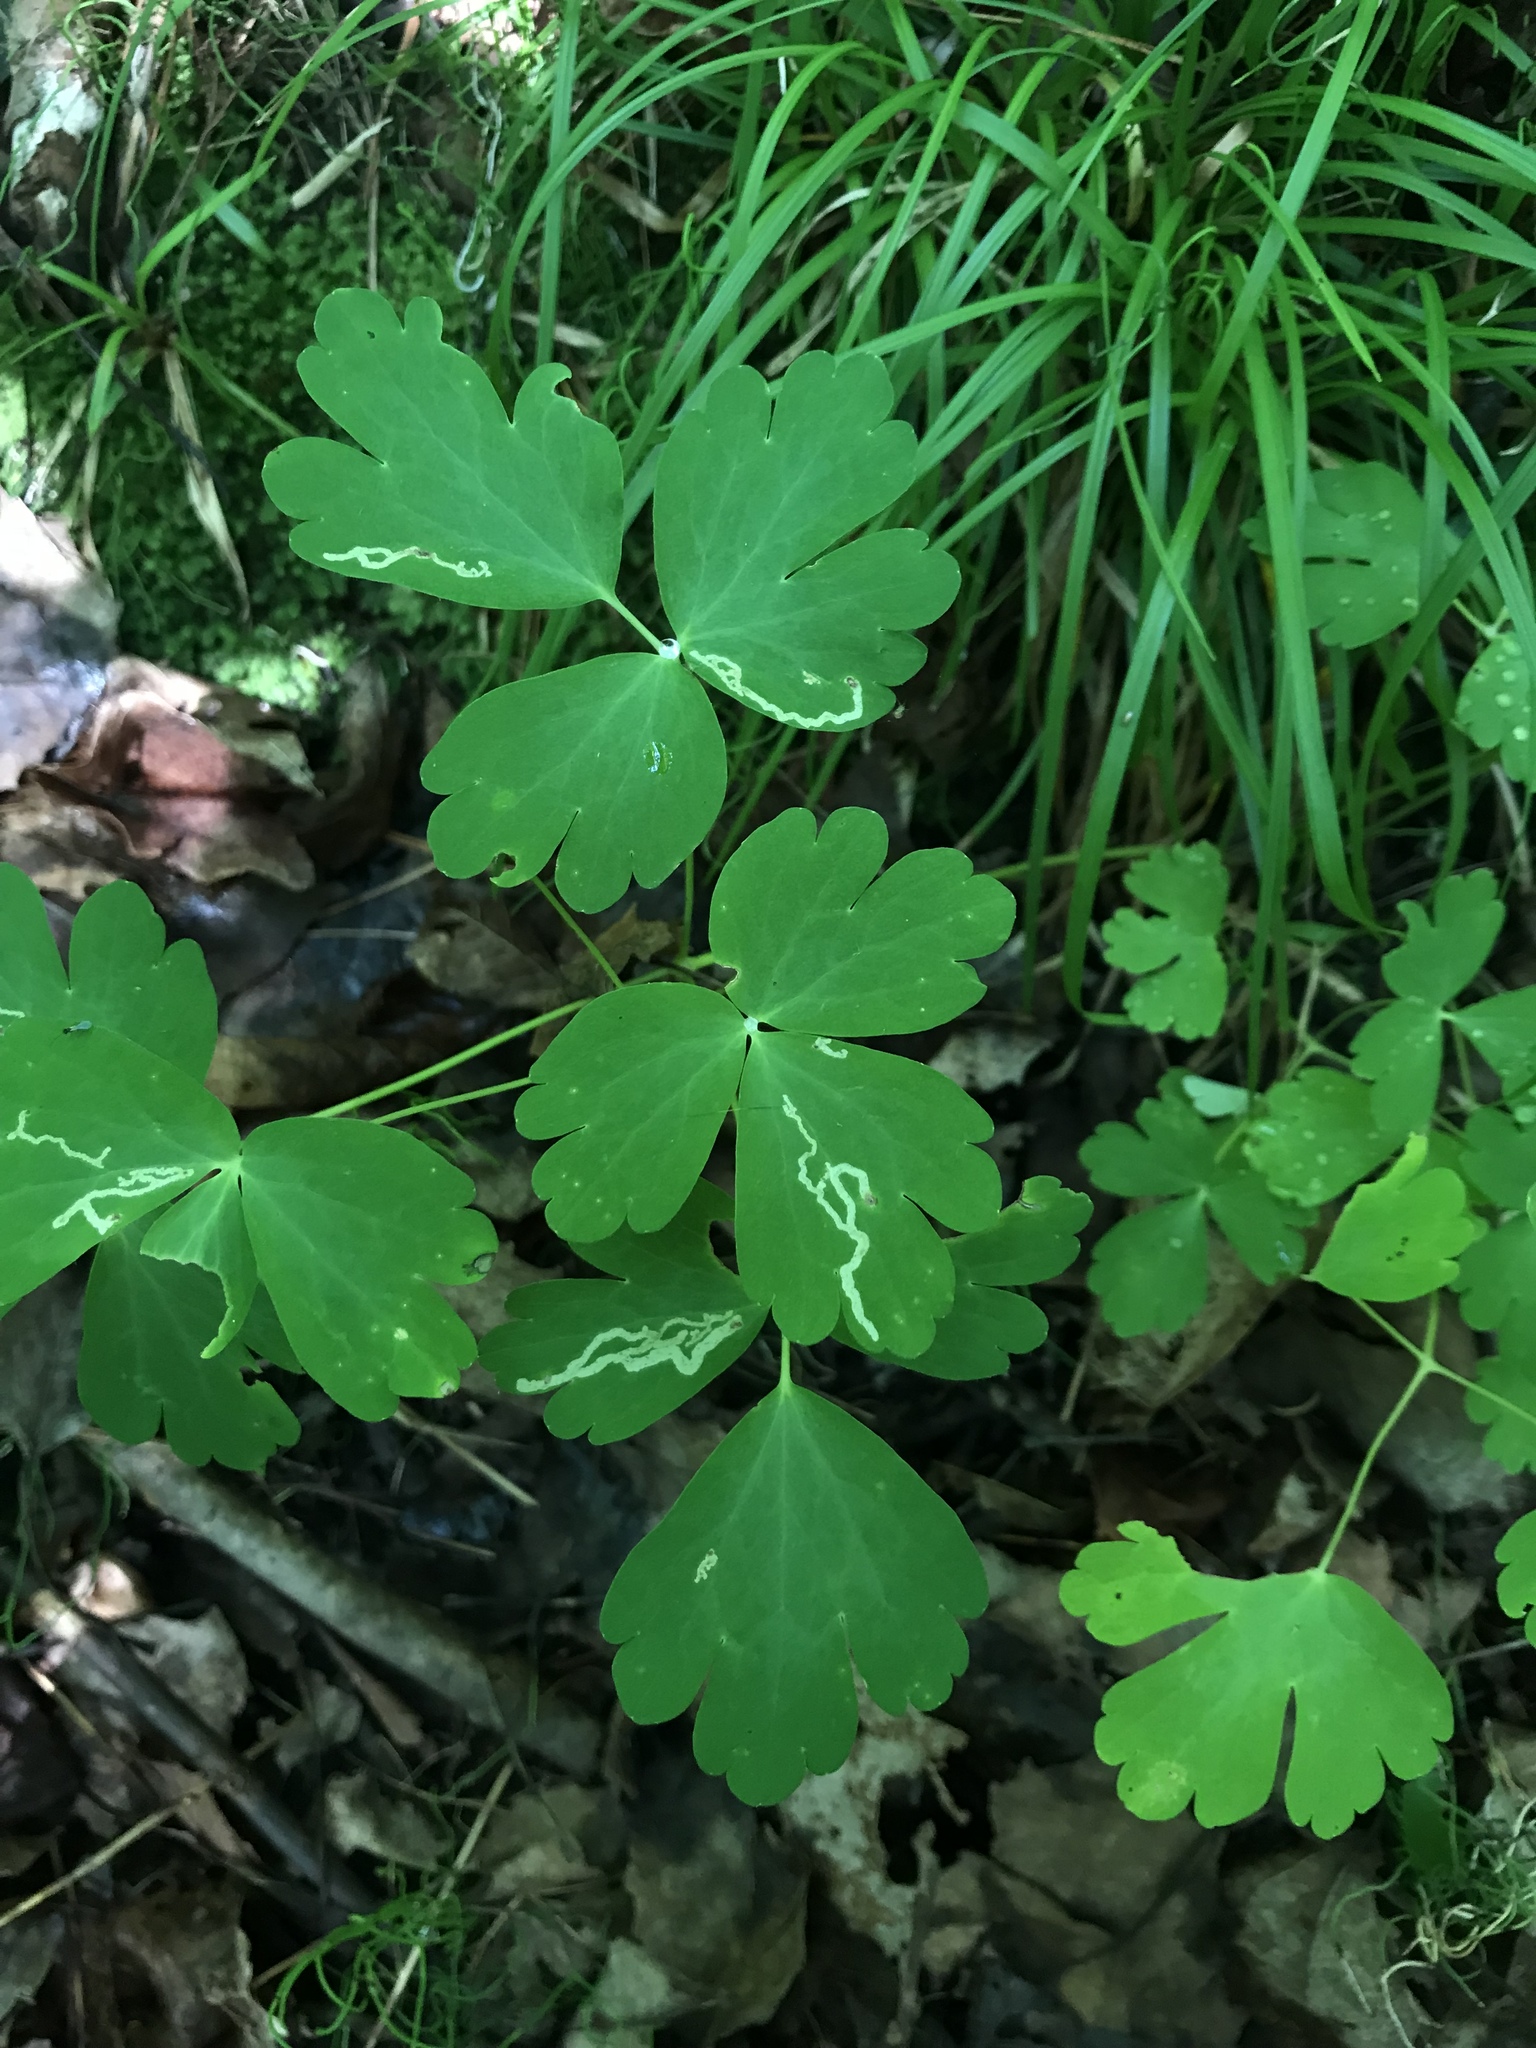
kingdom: Plantae
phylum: Tracheophyta
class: Magnoliopsida
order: Ranunculales
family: Ranunculaceae
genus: Aquilegia
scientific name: Aquilegia canadensis
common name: American columbine
